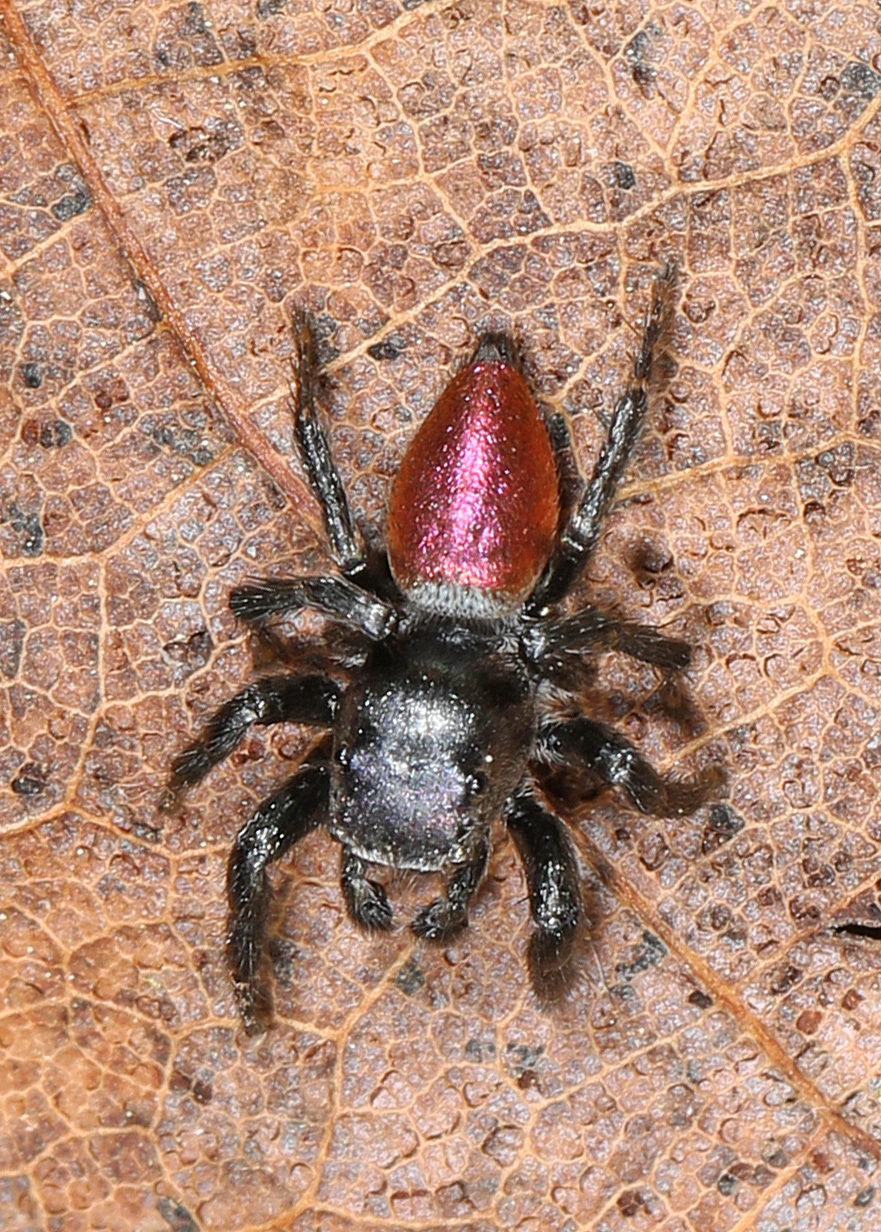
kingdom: Animalia
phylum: Arthropoda
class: Arachnida
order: Araneae
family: Salticidae
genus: Habronattus
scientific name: Habronattus decorus
